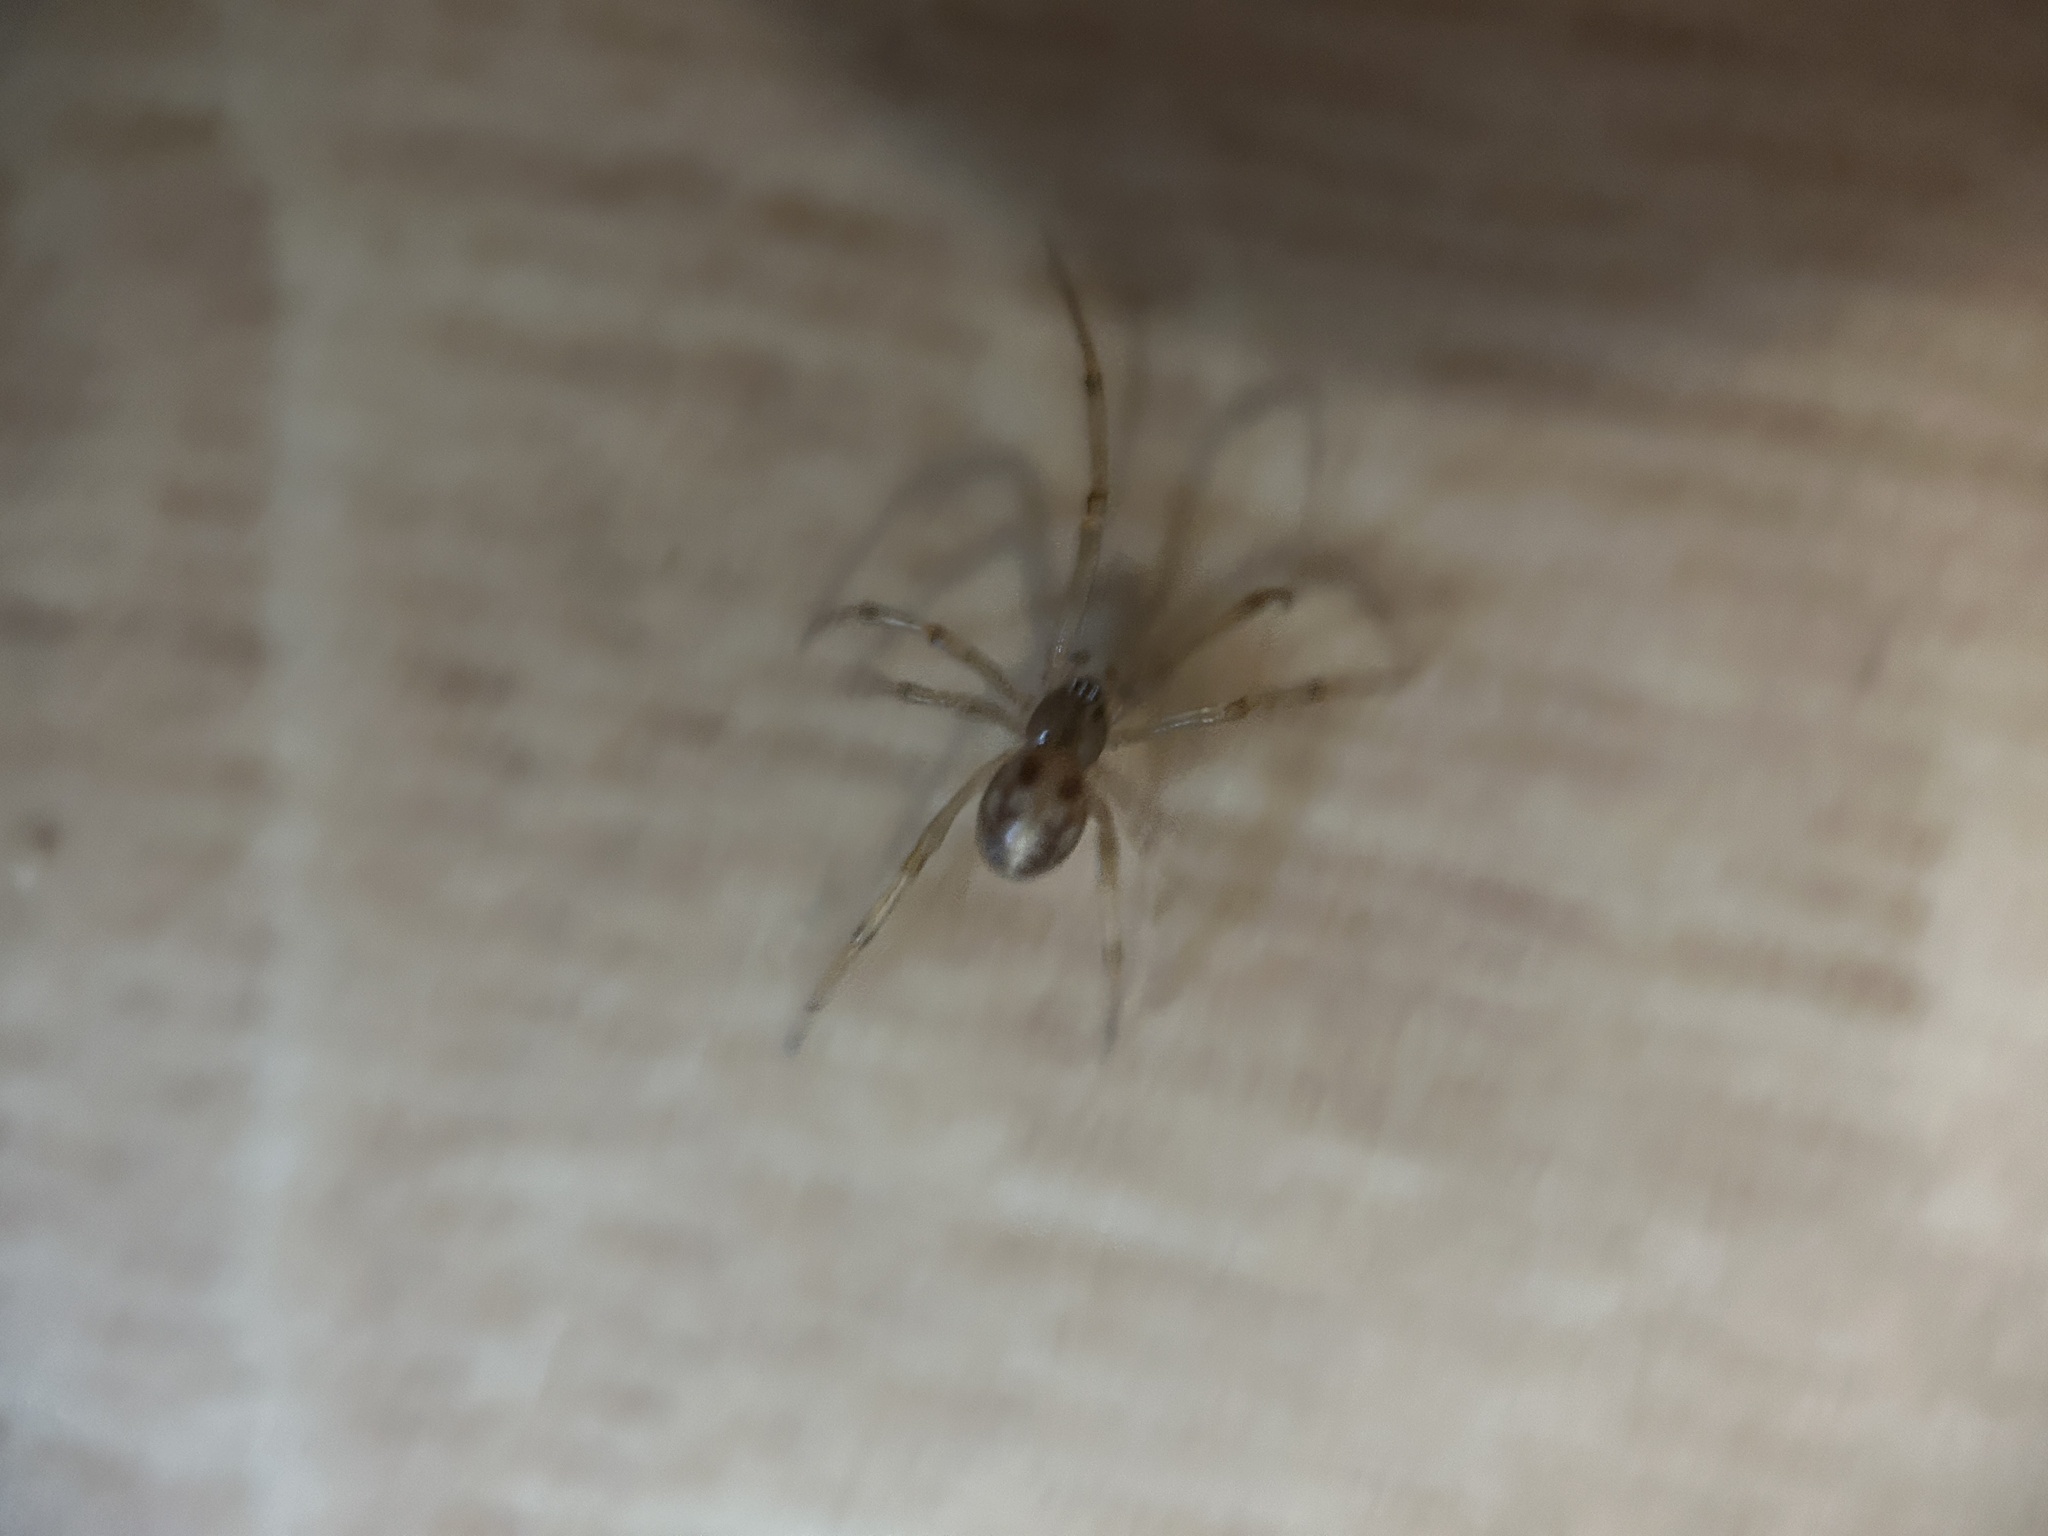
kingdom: Animalia
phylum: Arthropoda
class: Arachnida
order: Araneae
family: Theridiidae
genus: Steatoda
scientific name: Steatoda triangulosa
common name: Triangulate bud spider
